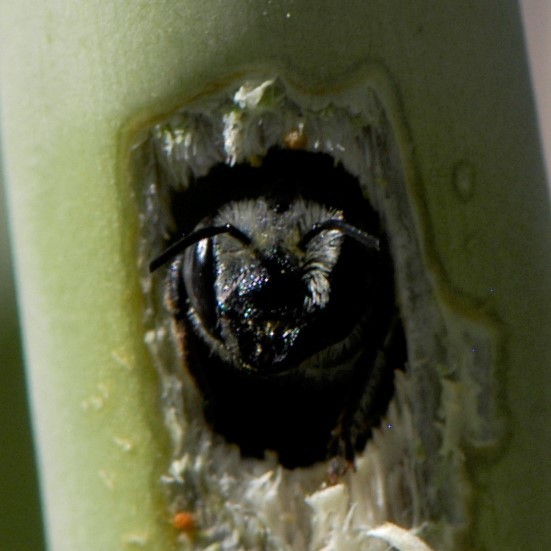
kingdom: Animalia
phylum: Arthropoda
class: Insecta
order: Hymenoptera
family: Megachilidae
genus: Megachile
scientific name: Megachile
